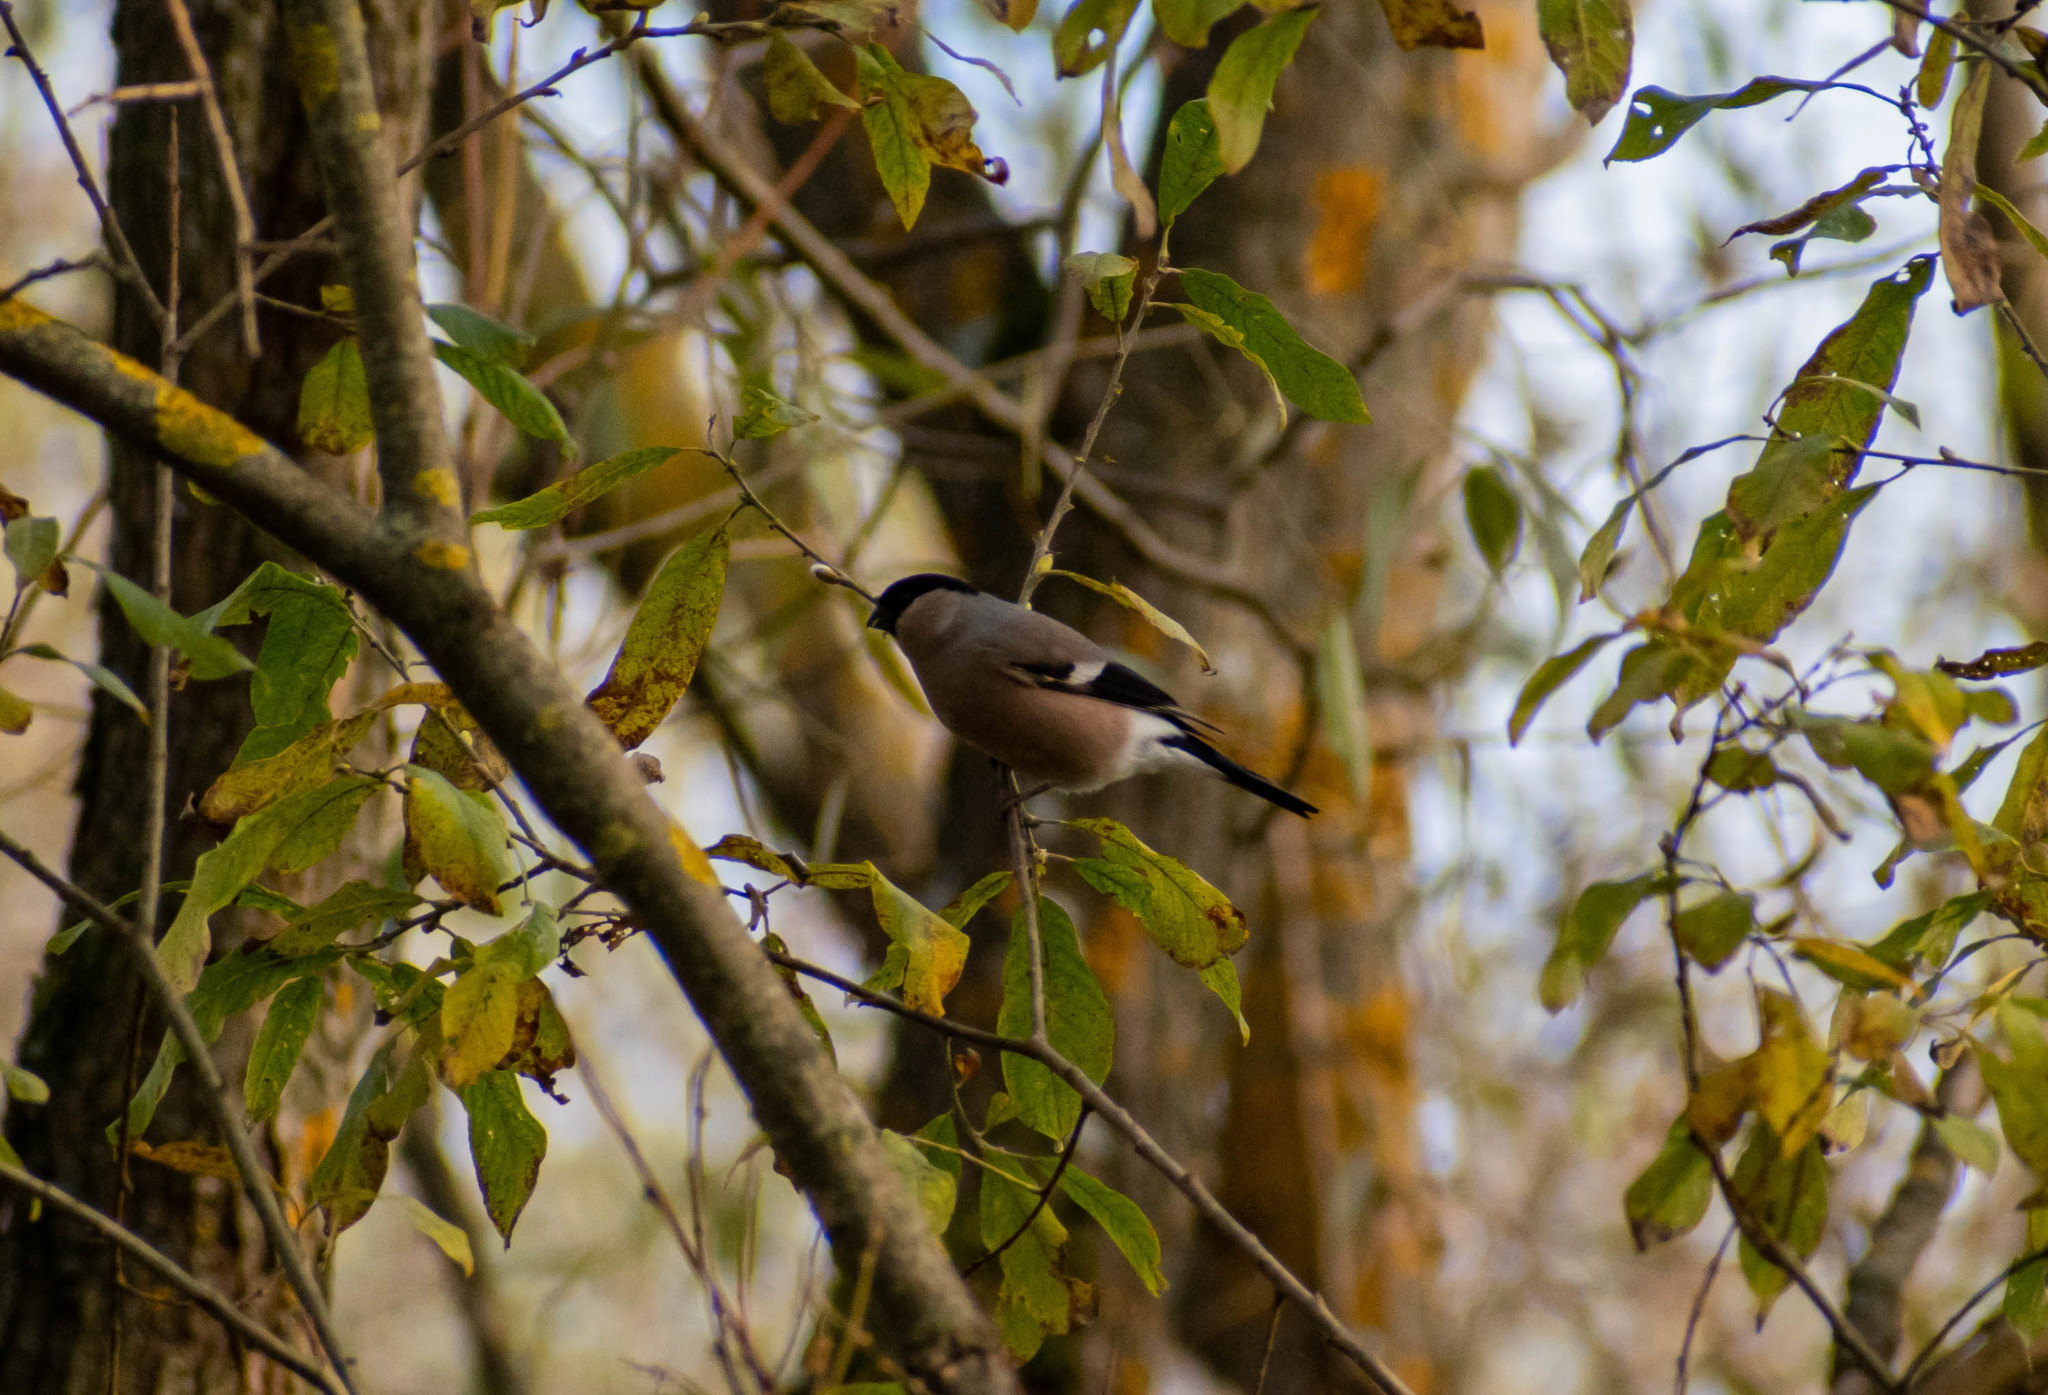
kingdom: Animalia
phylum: Chordata
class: Aves
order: Passeriformes
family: Fringillidae
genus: Pyrrhula
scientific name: Pyrrhula pyrrhula
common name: Eurasian bullfinch
